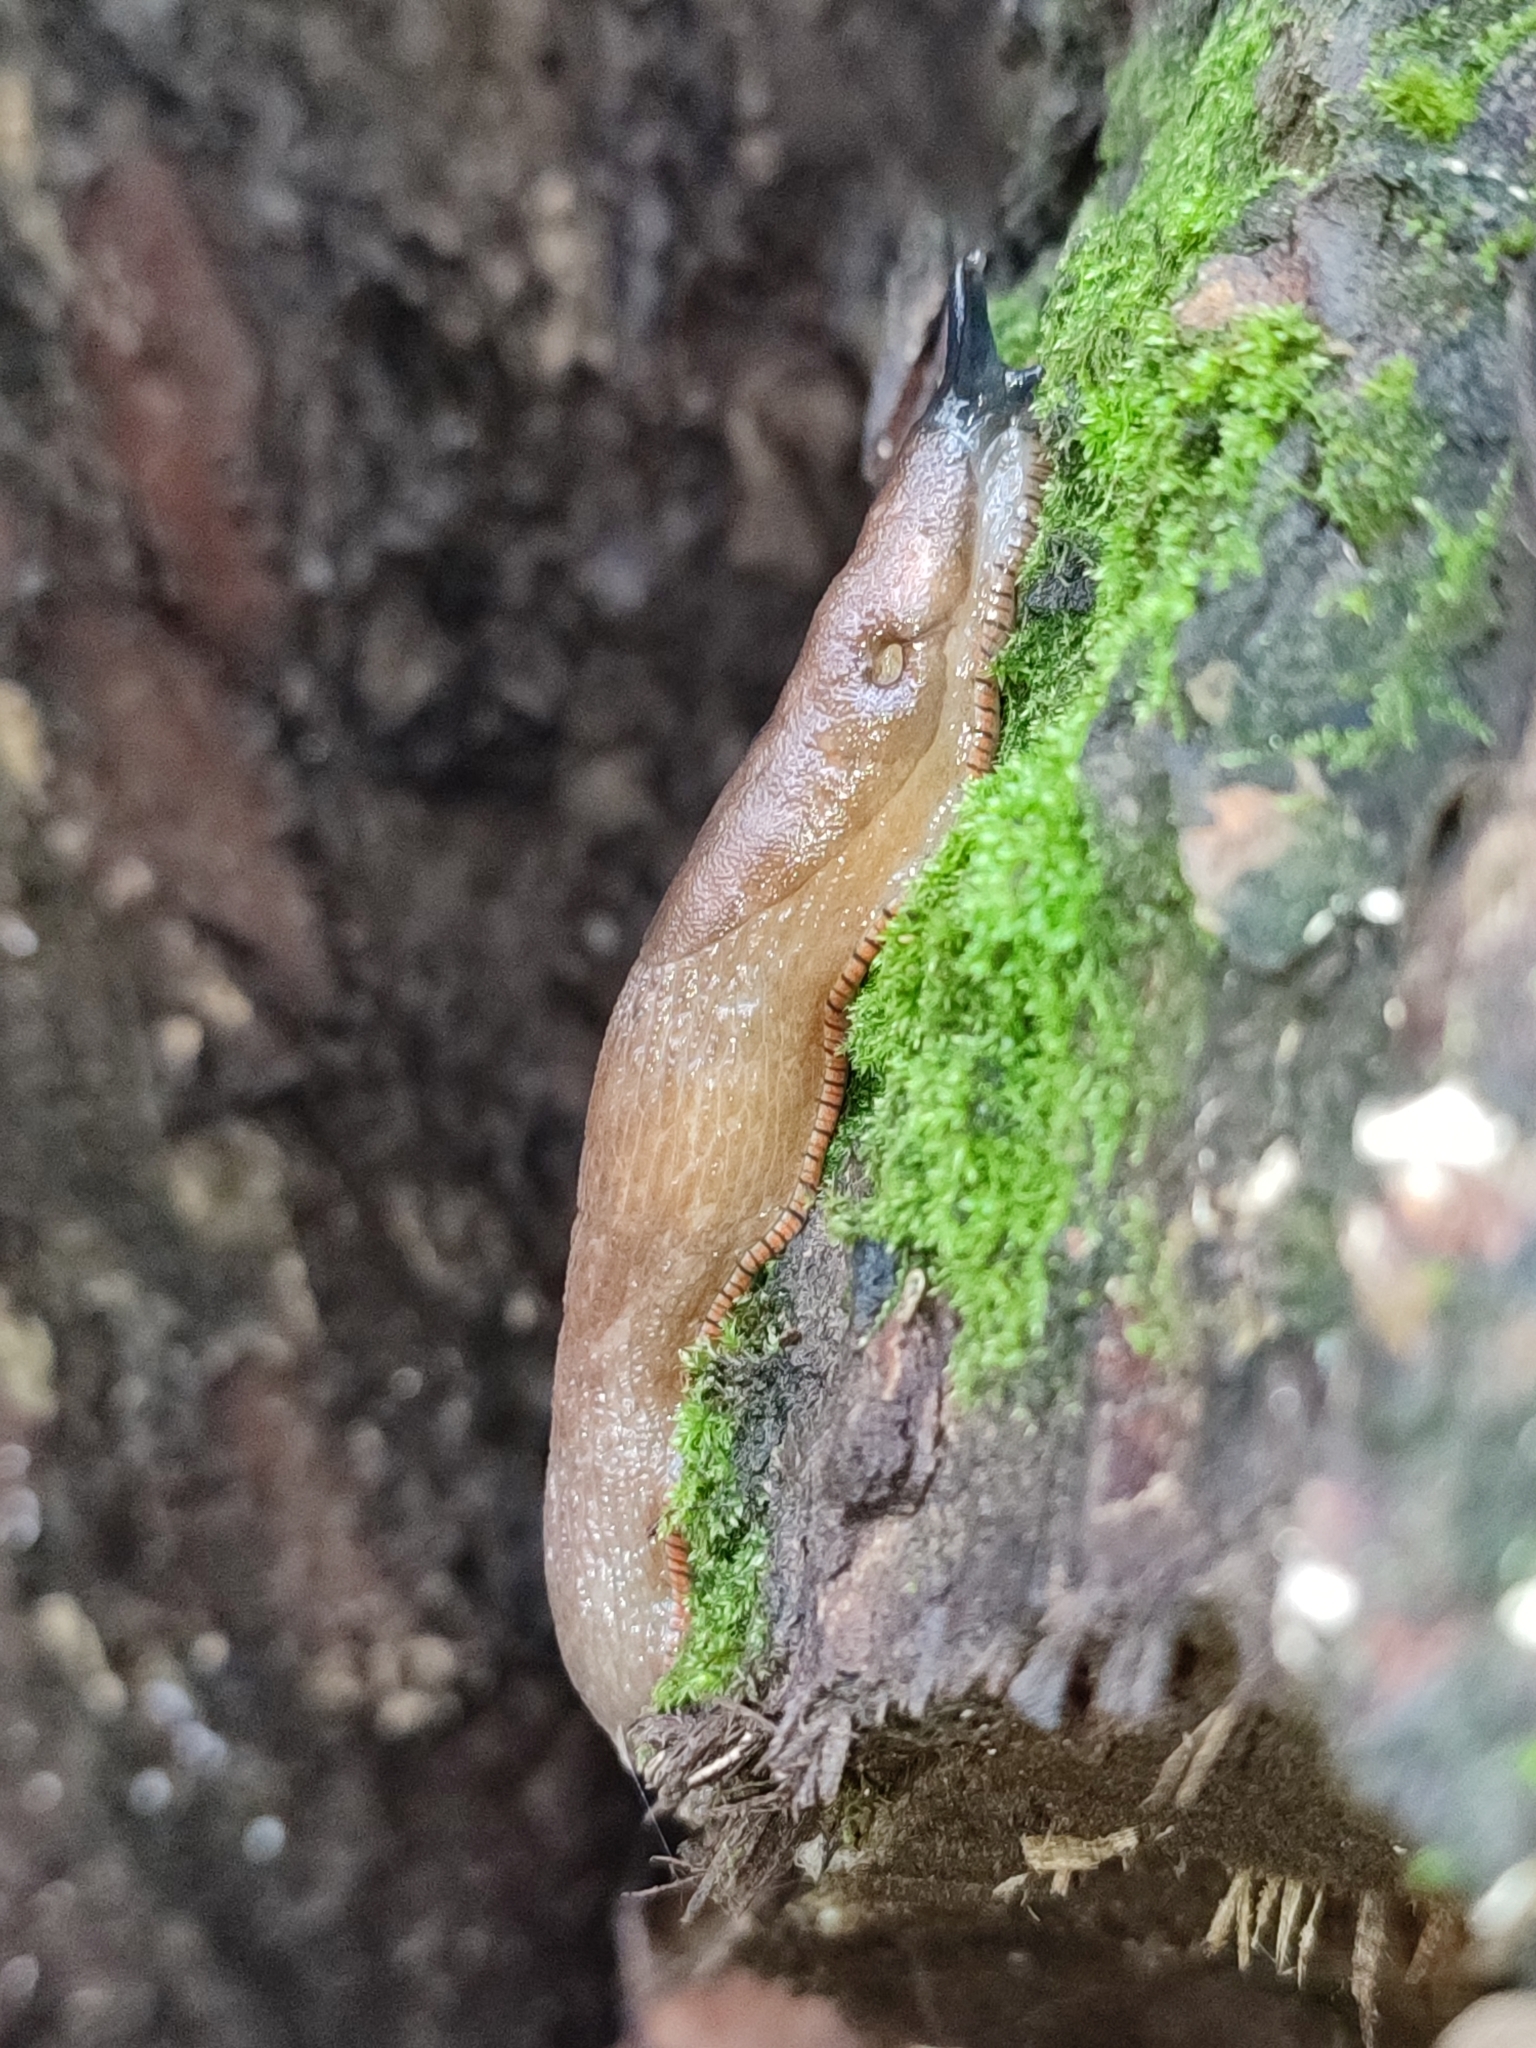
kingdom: Animalia
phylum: Mollusca
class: Gastropoda
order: Stylommatophora
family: Arionidae
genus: Arion
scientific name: Arion vulgaris
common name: Lusitanian slug
